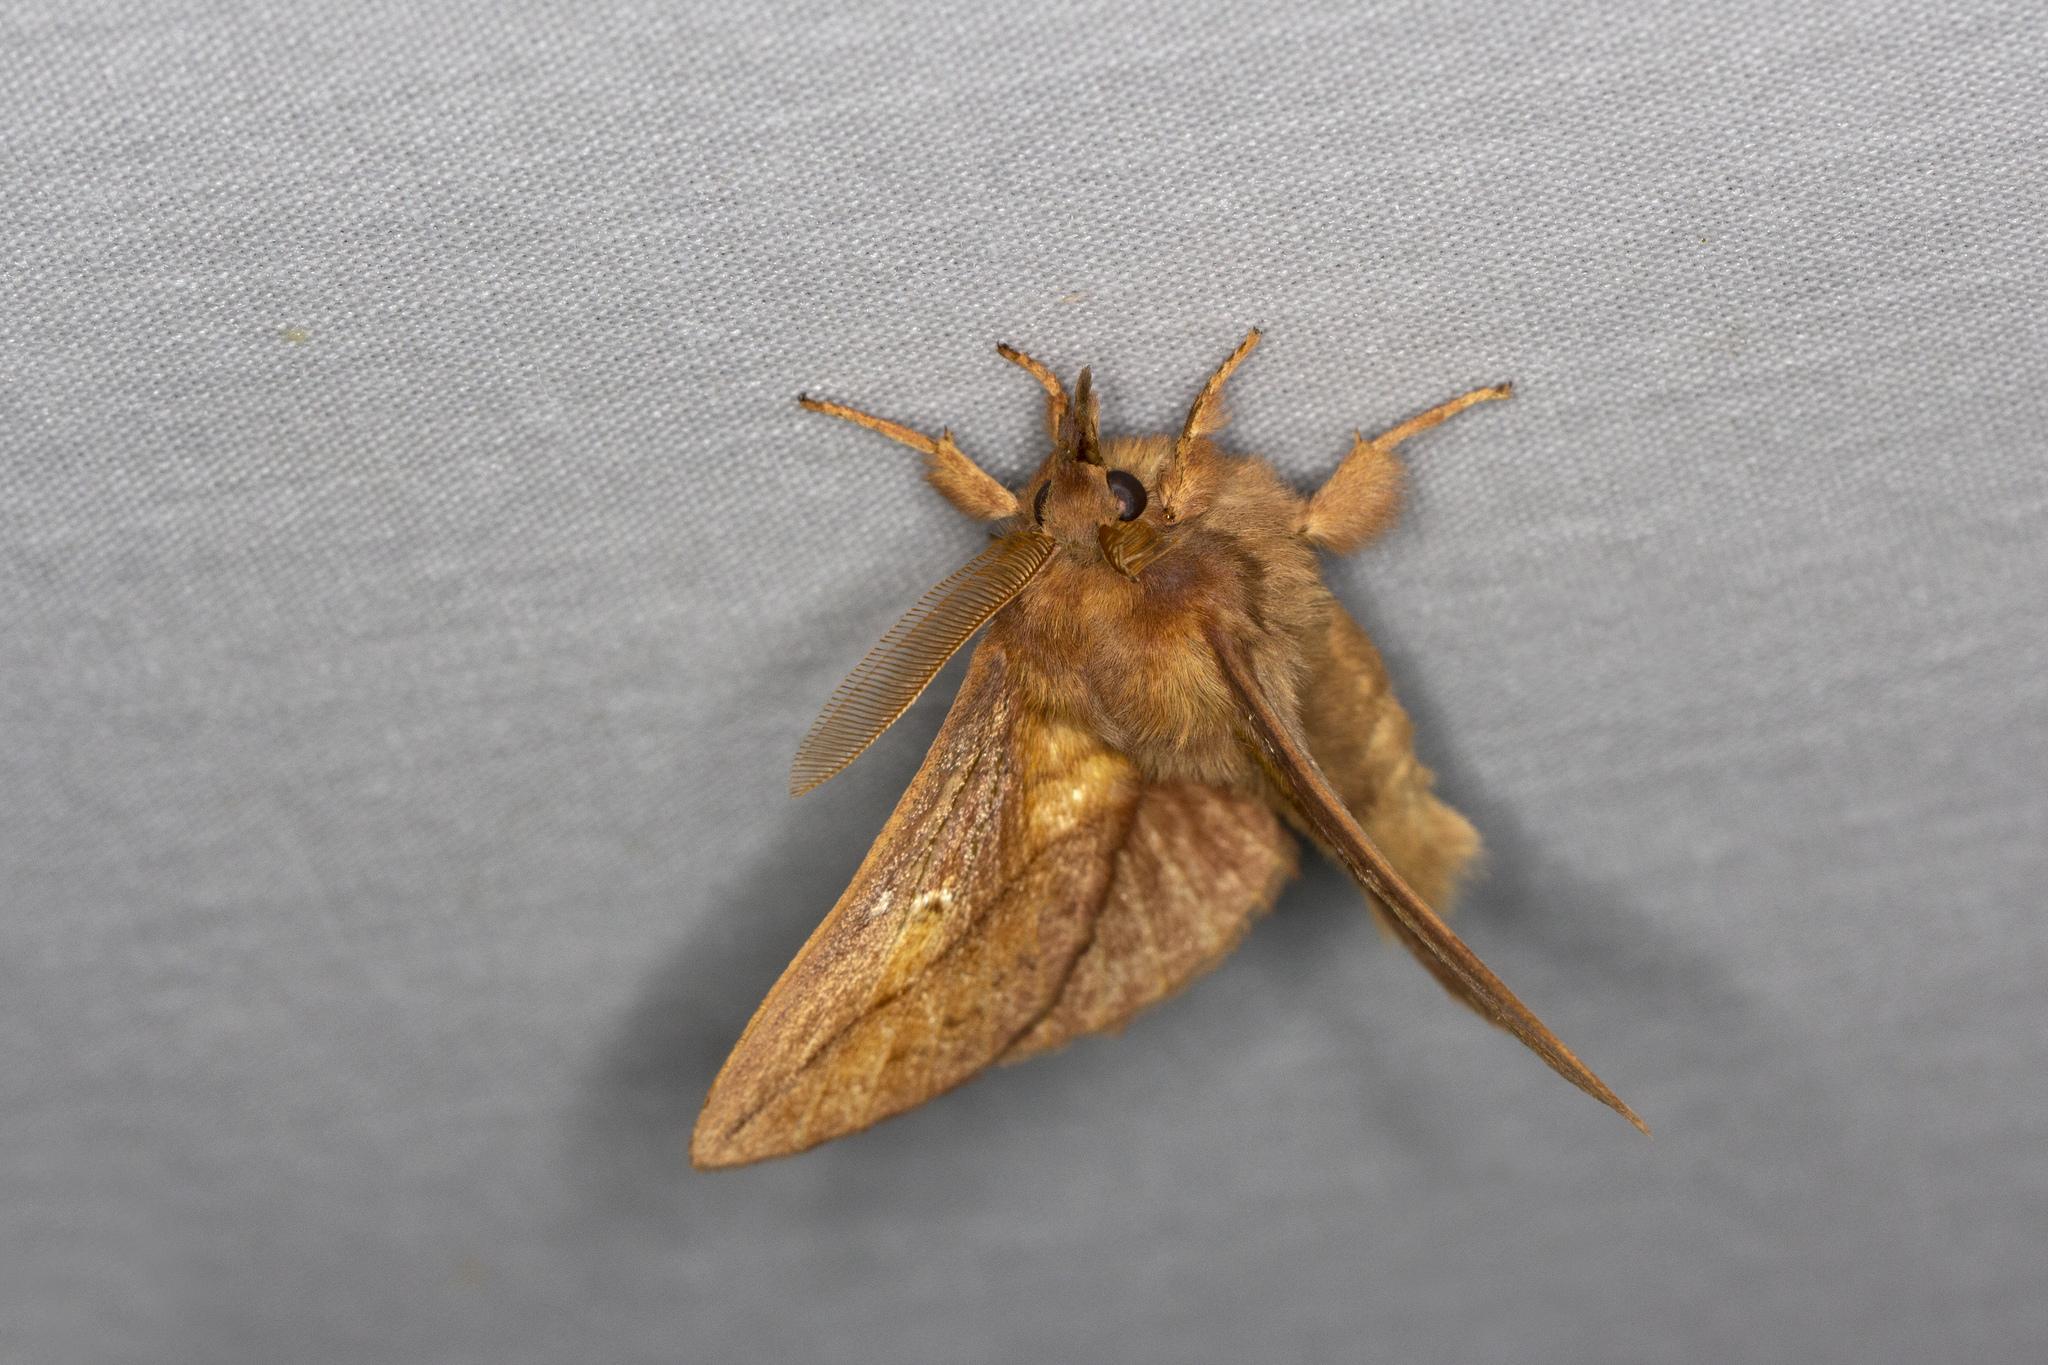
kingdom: Animalia
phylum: Arthropoda
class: Insecta
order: Lepidoptera
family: Lasiocampidae
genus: Euthrix
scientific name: Euthrix potatoria
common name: Drinker
